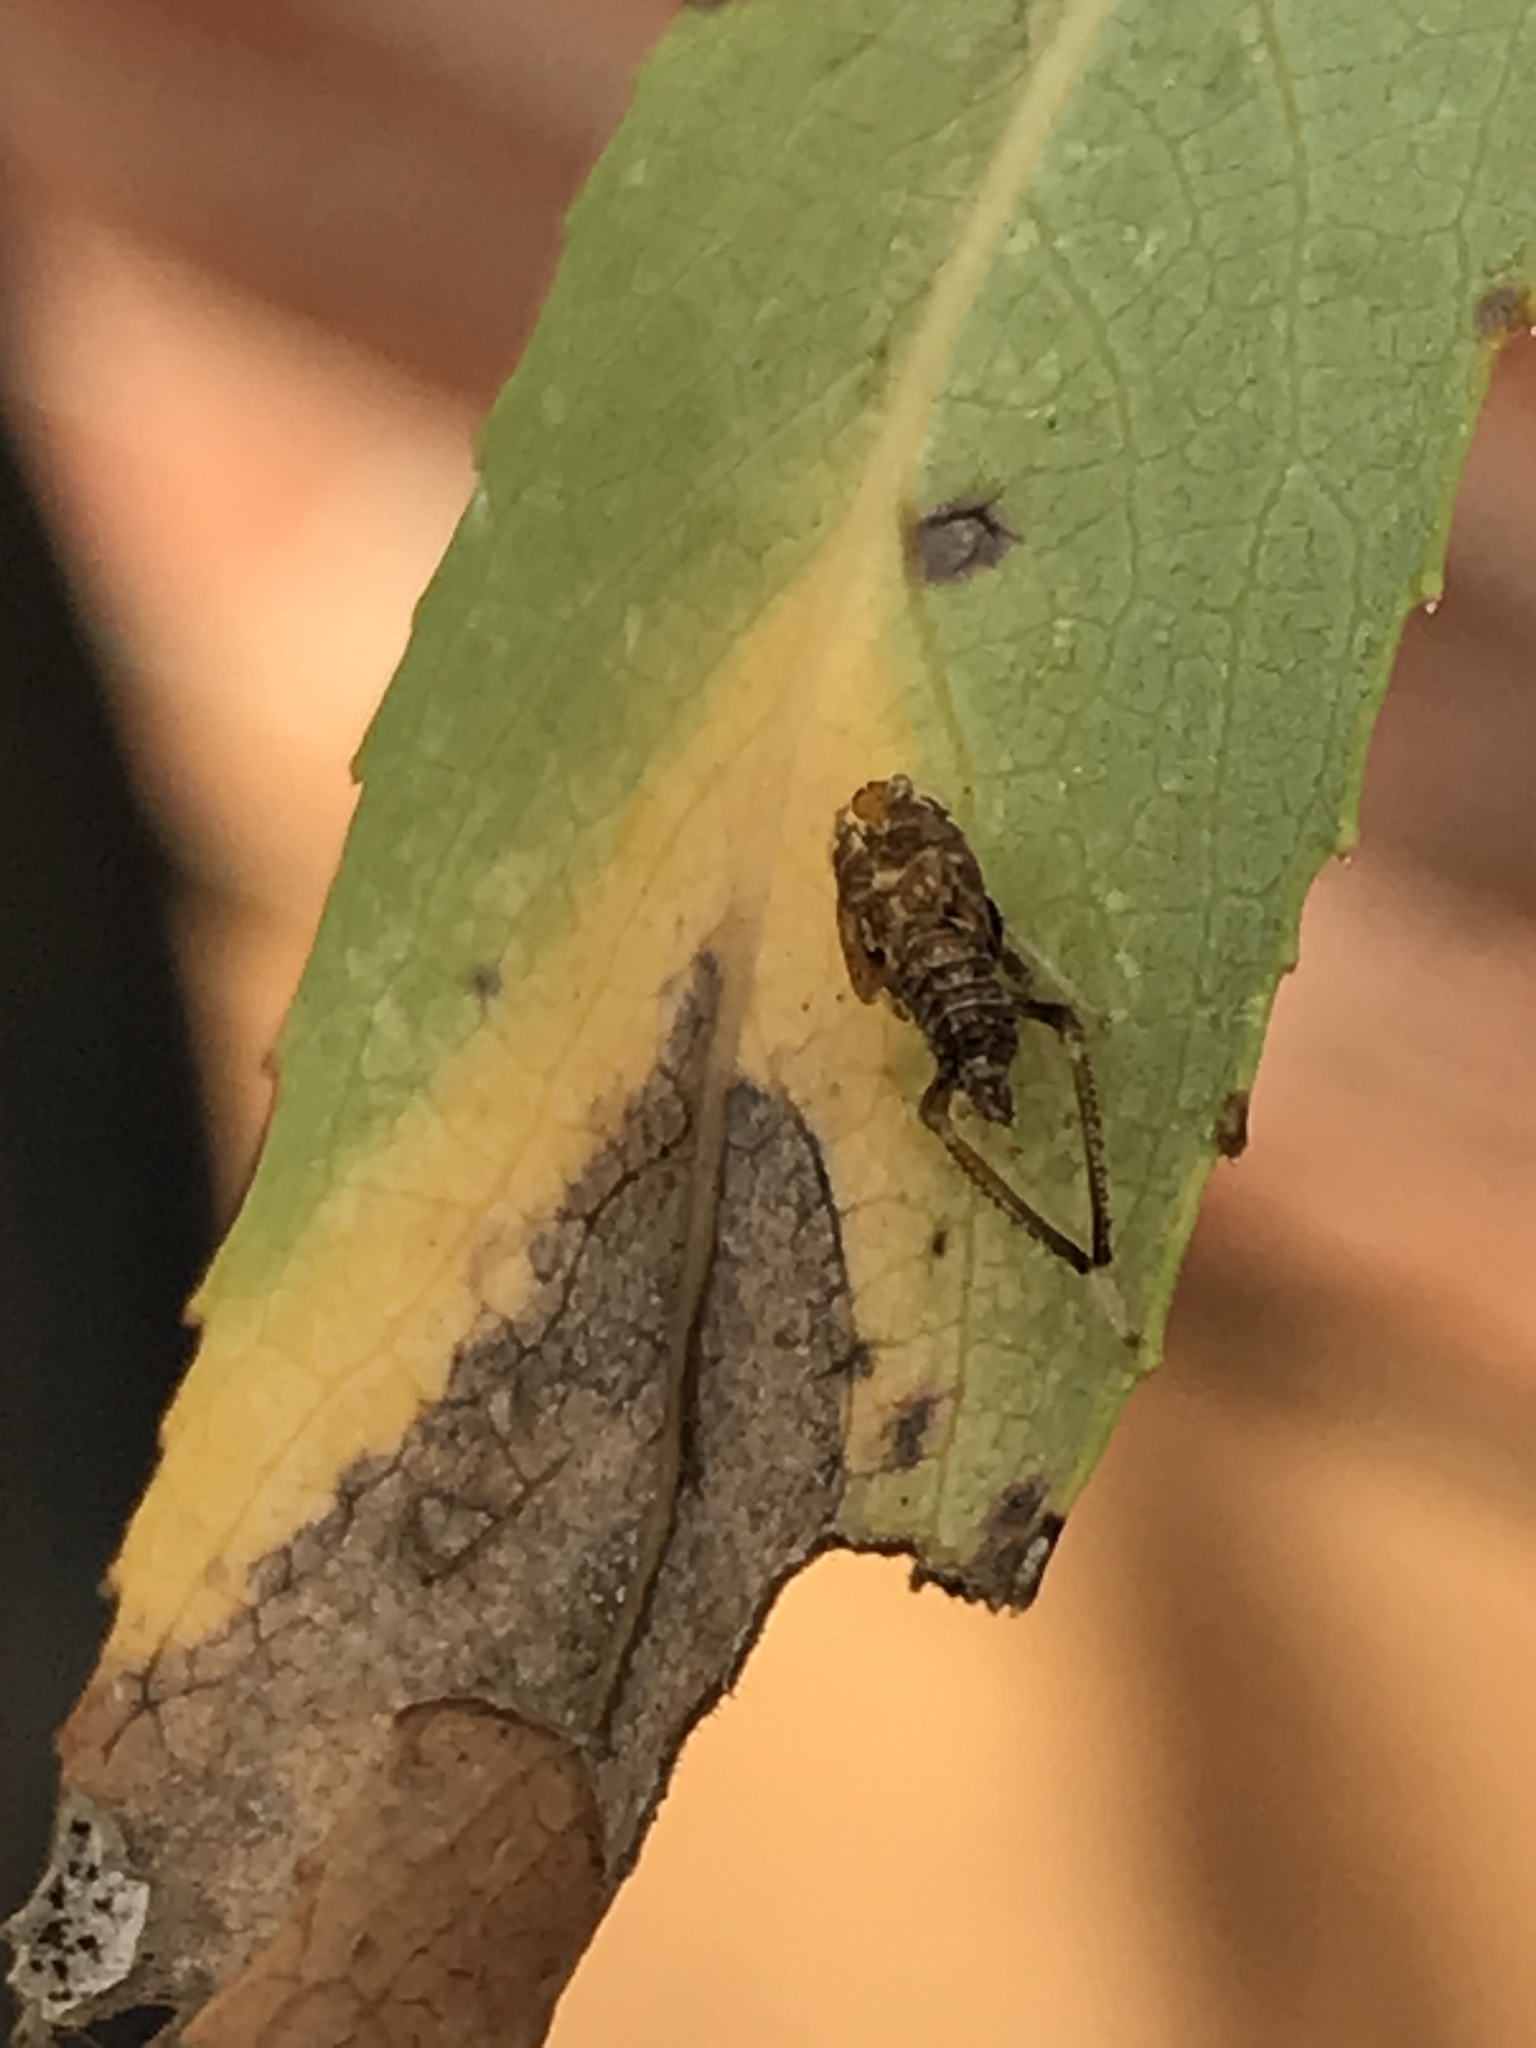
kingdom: Animalia
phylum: Arthropoda
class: Insecta
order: Hemiptera
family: Cicadellidae
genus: Orientus
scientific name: Orientus ishidae
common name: Japanese leafhopper
